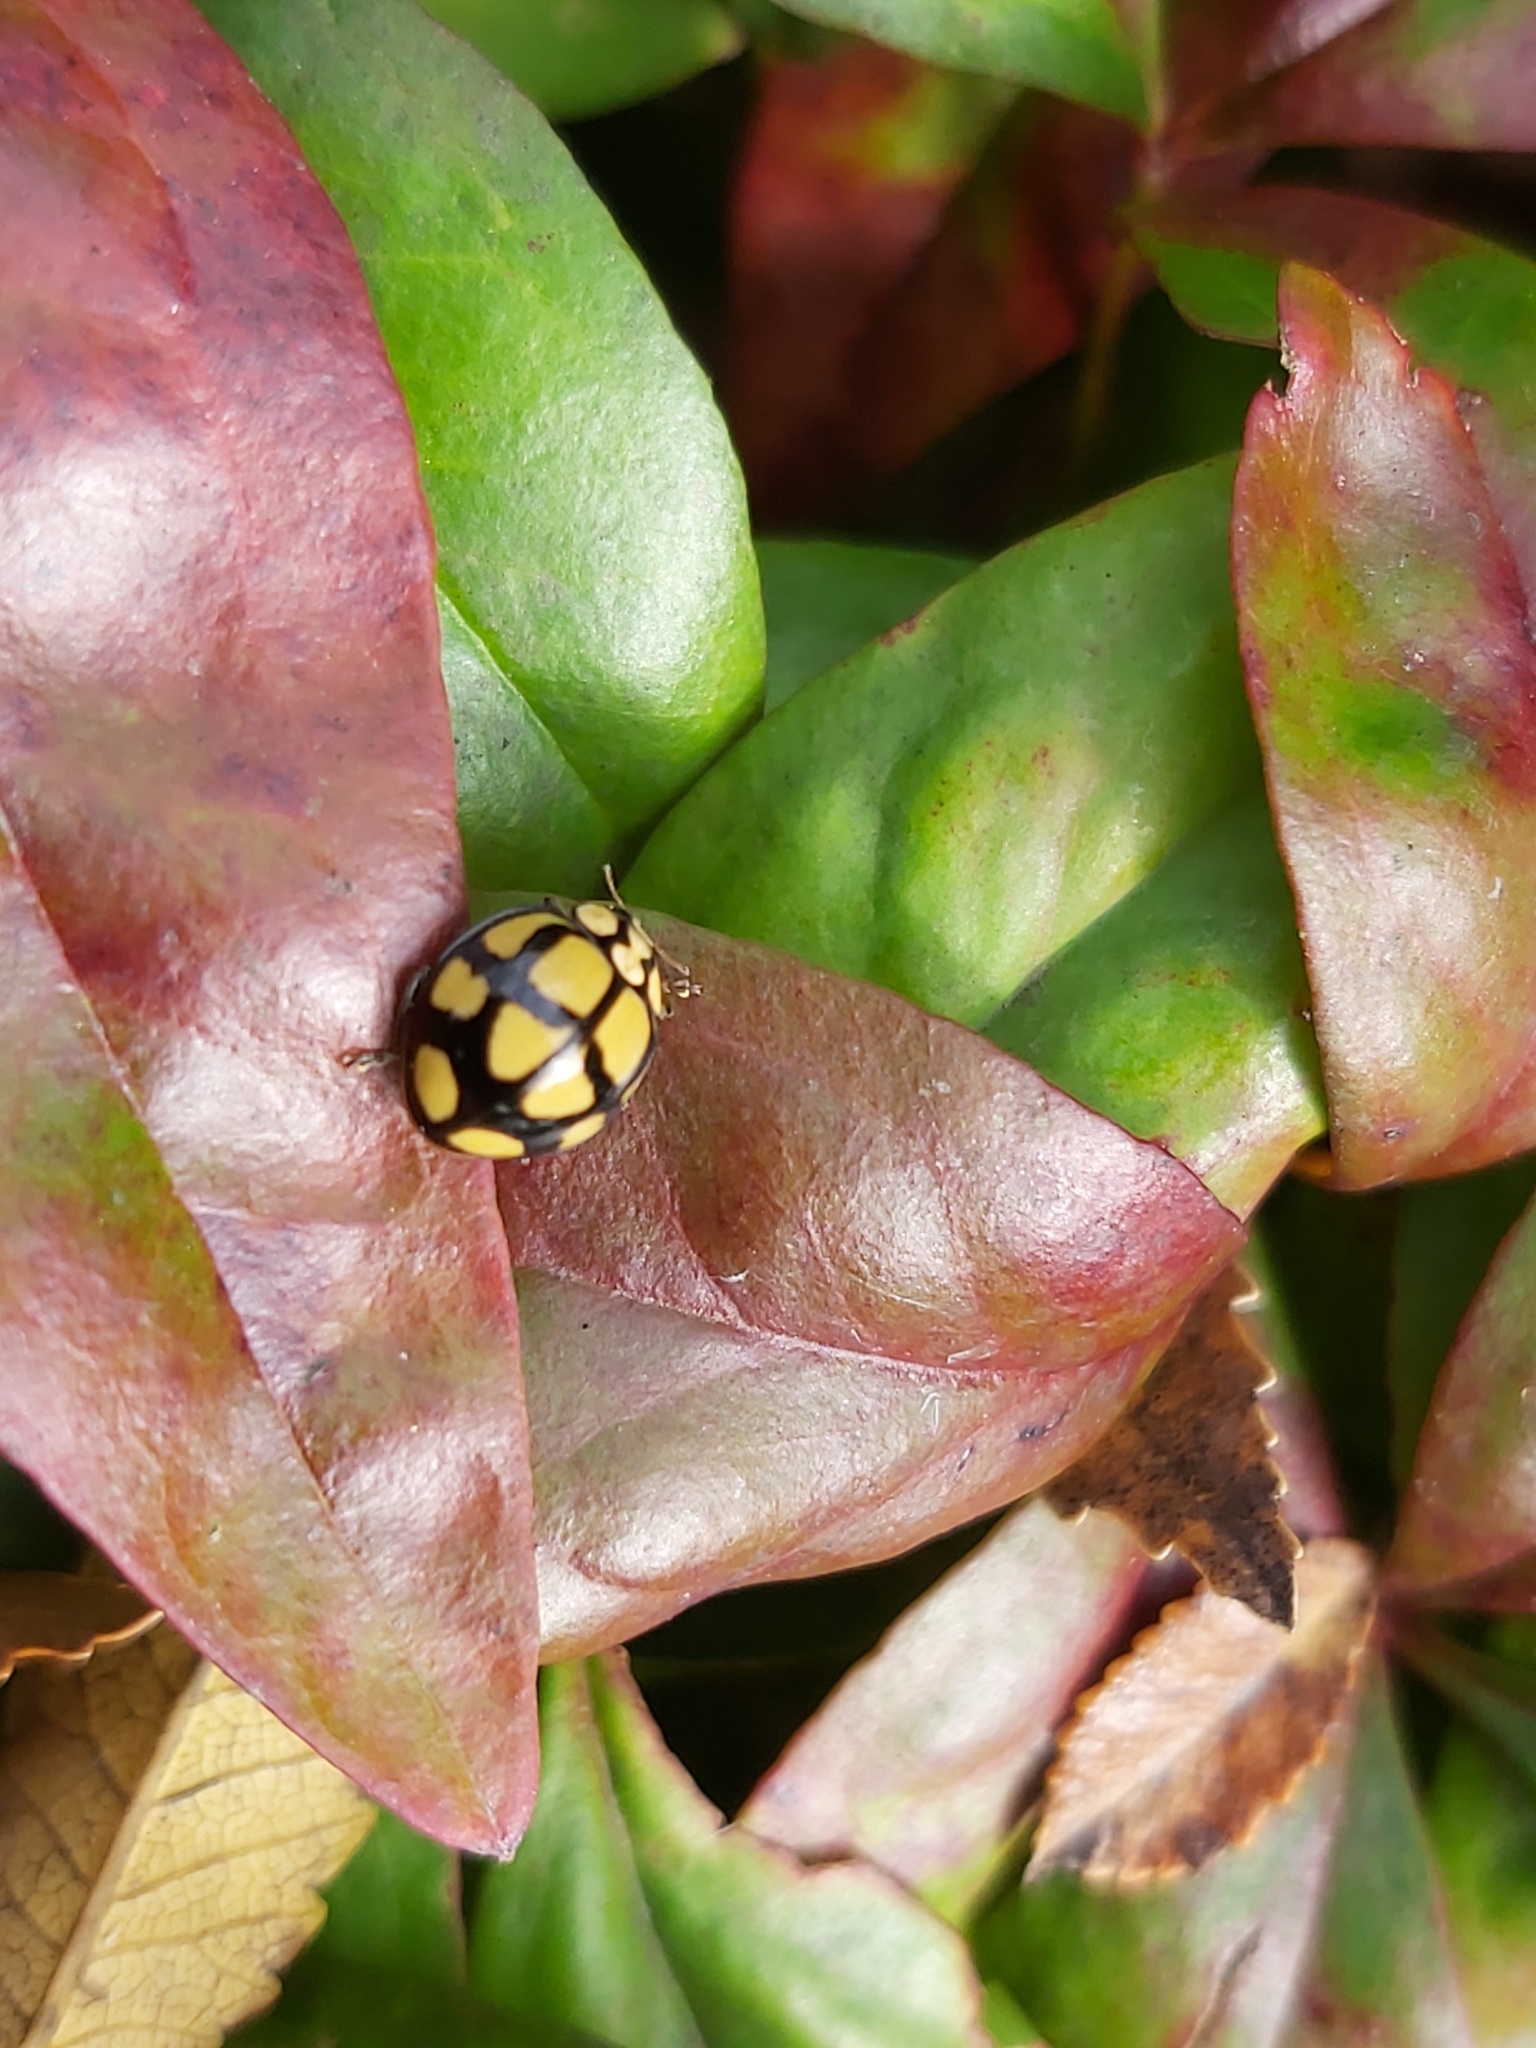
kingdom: Animalia
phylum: Arthropoda
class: Insecta
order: Coleoptera
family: Coccinellidae
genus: Harmonia
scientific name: Harmonia
